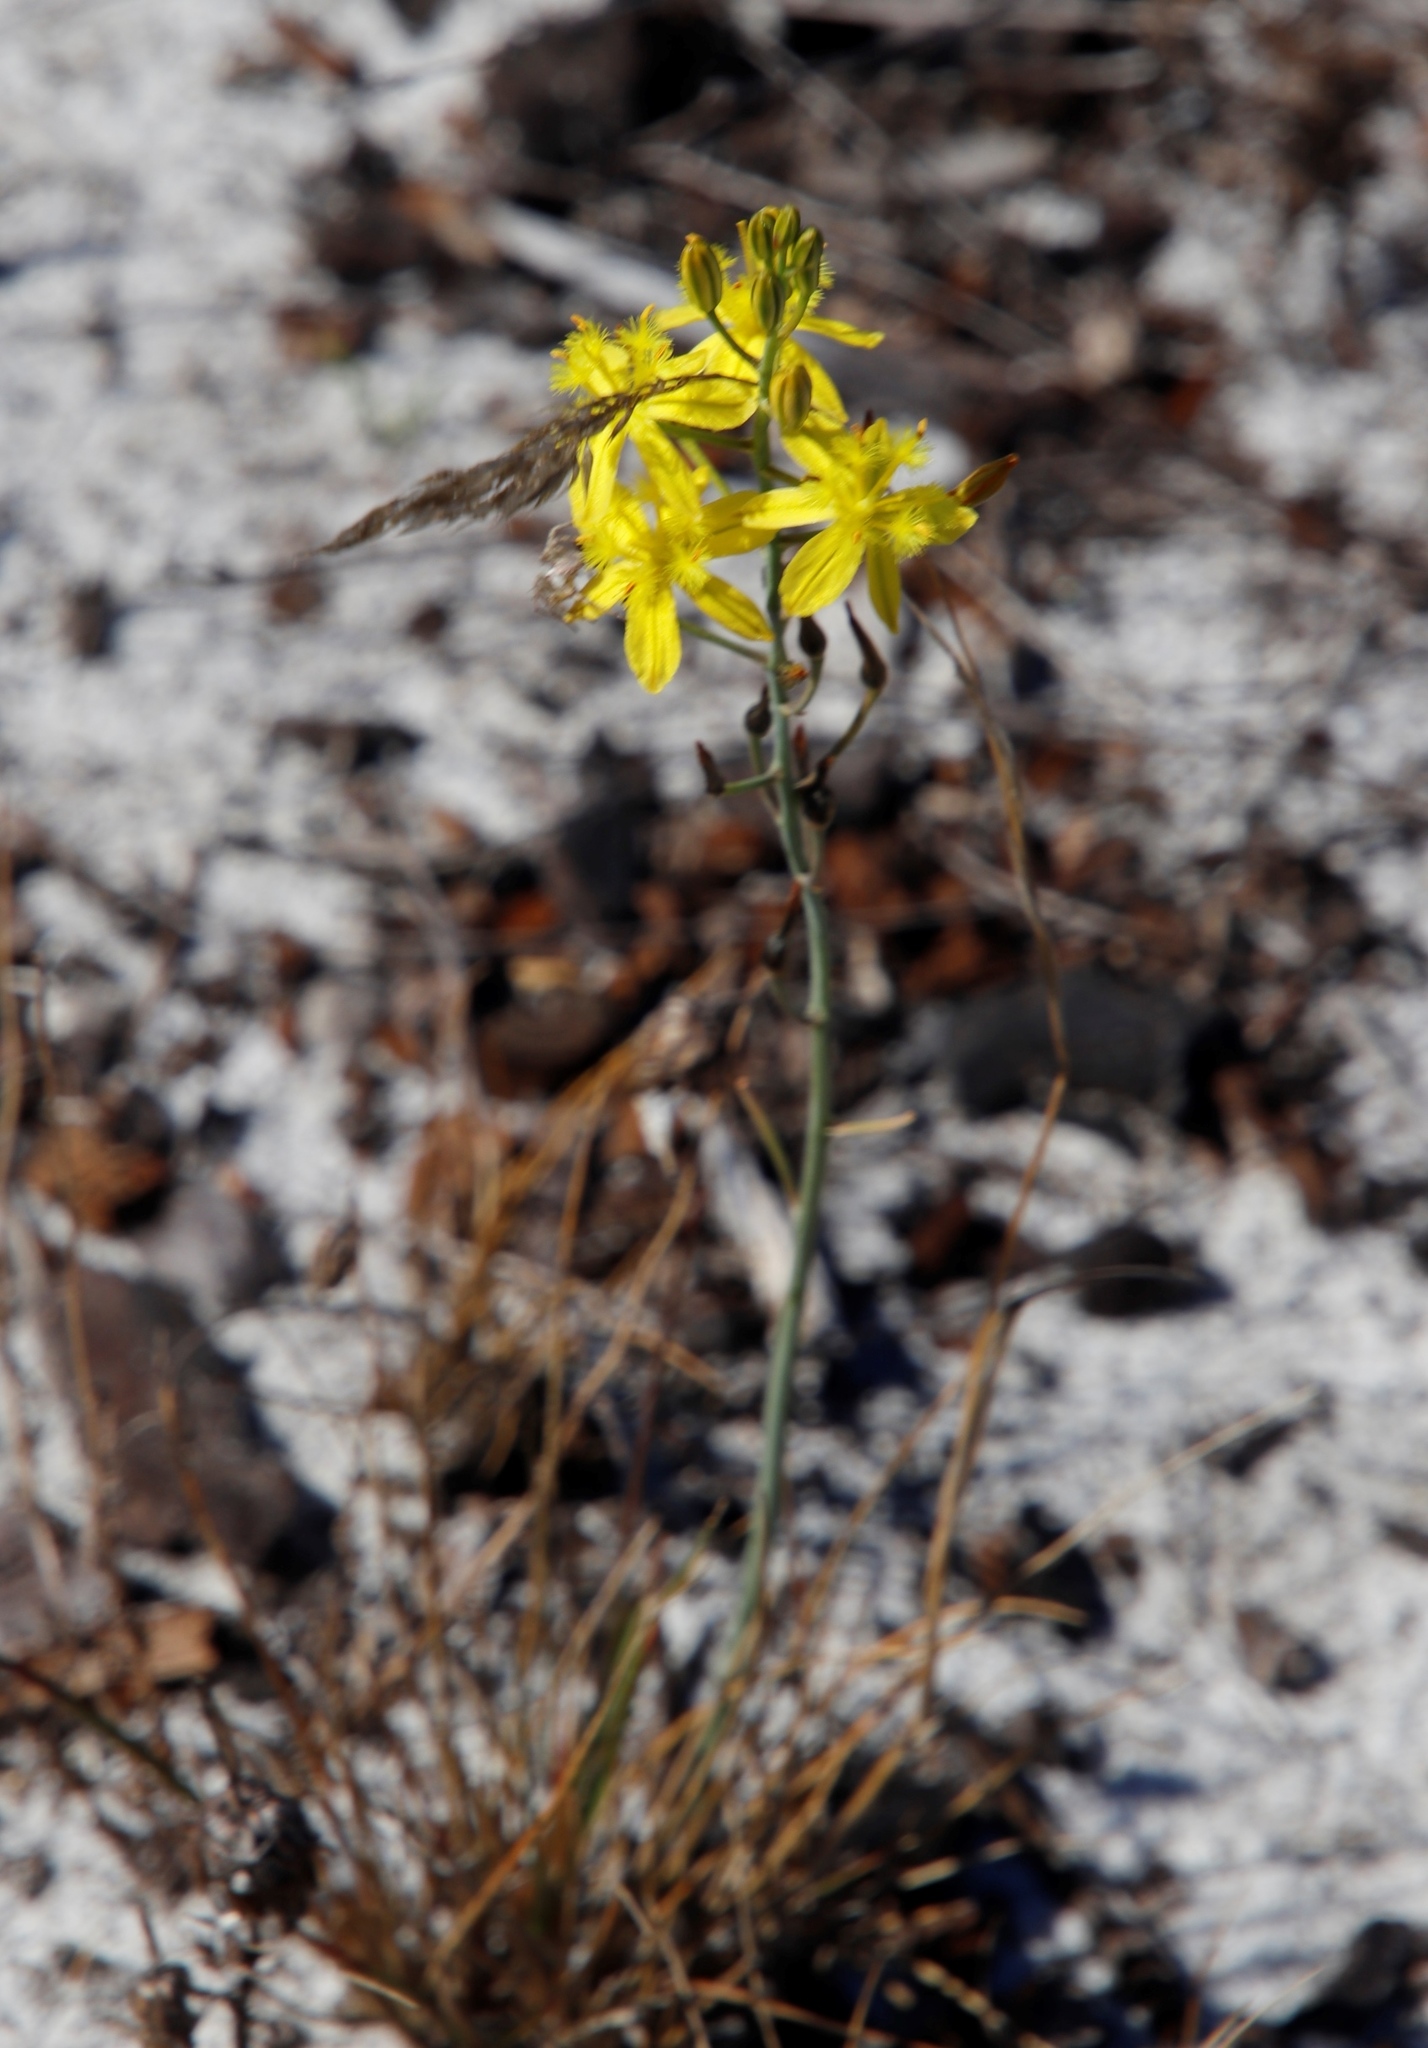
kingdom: Plantae
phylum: Tracheophyta
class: Liliopsida
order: Asparagales
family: Asphodelaceae
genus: Bulbine
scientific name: Bulbine favosa
